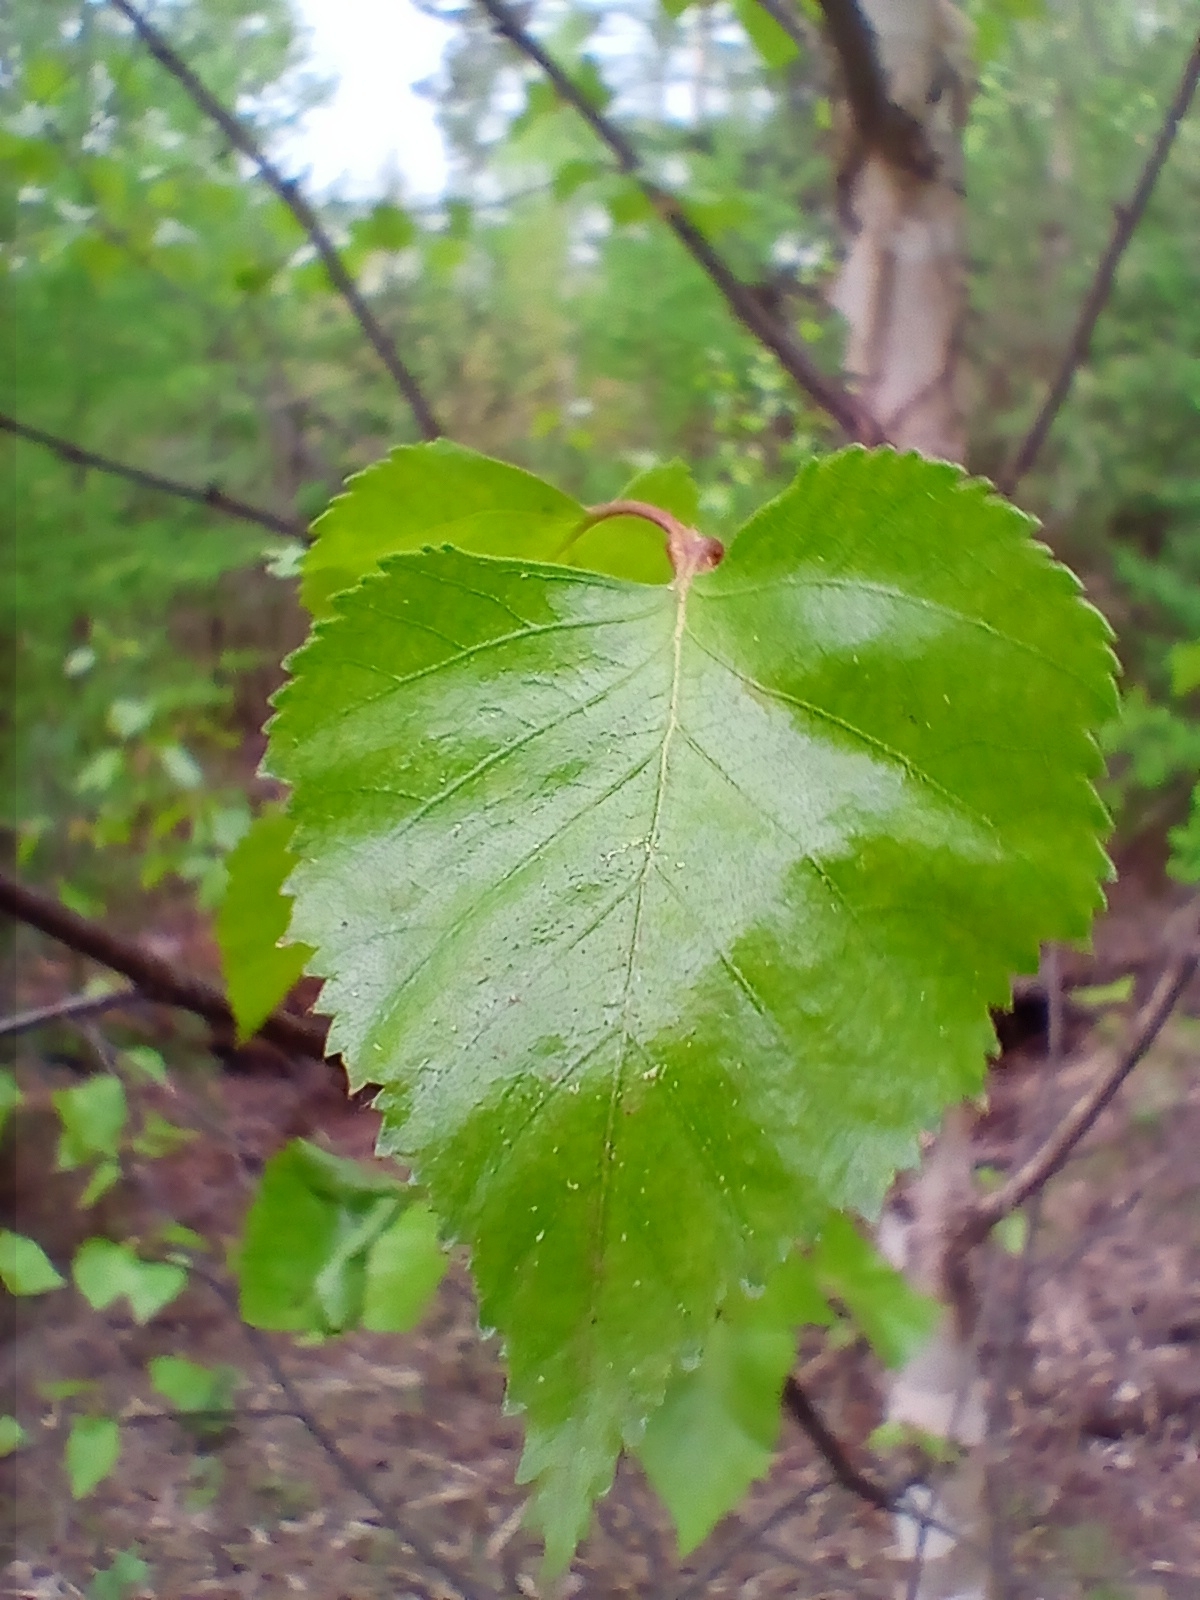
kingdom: Plantae
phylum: Tracheophyta
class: Magnoliopsida
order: Fagales
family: Betulaceae
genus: Betula
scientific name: Betula pendula
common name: Silver birch
